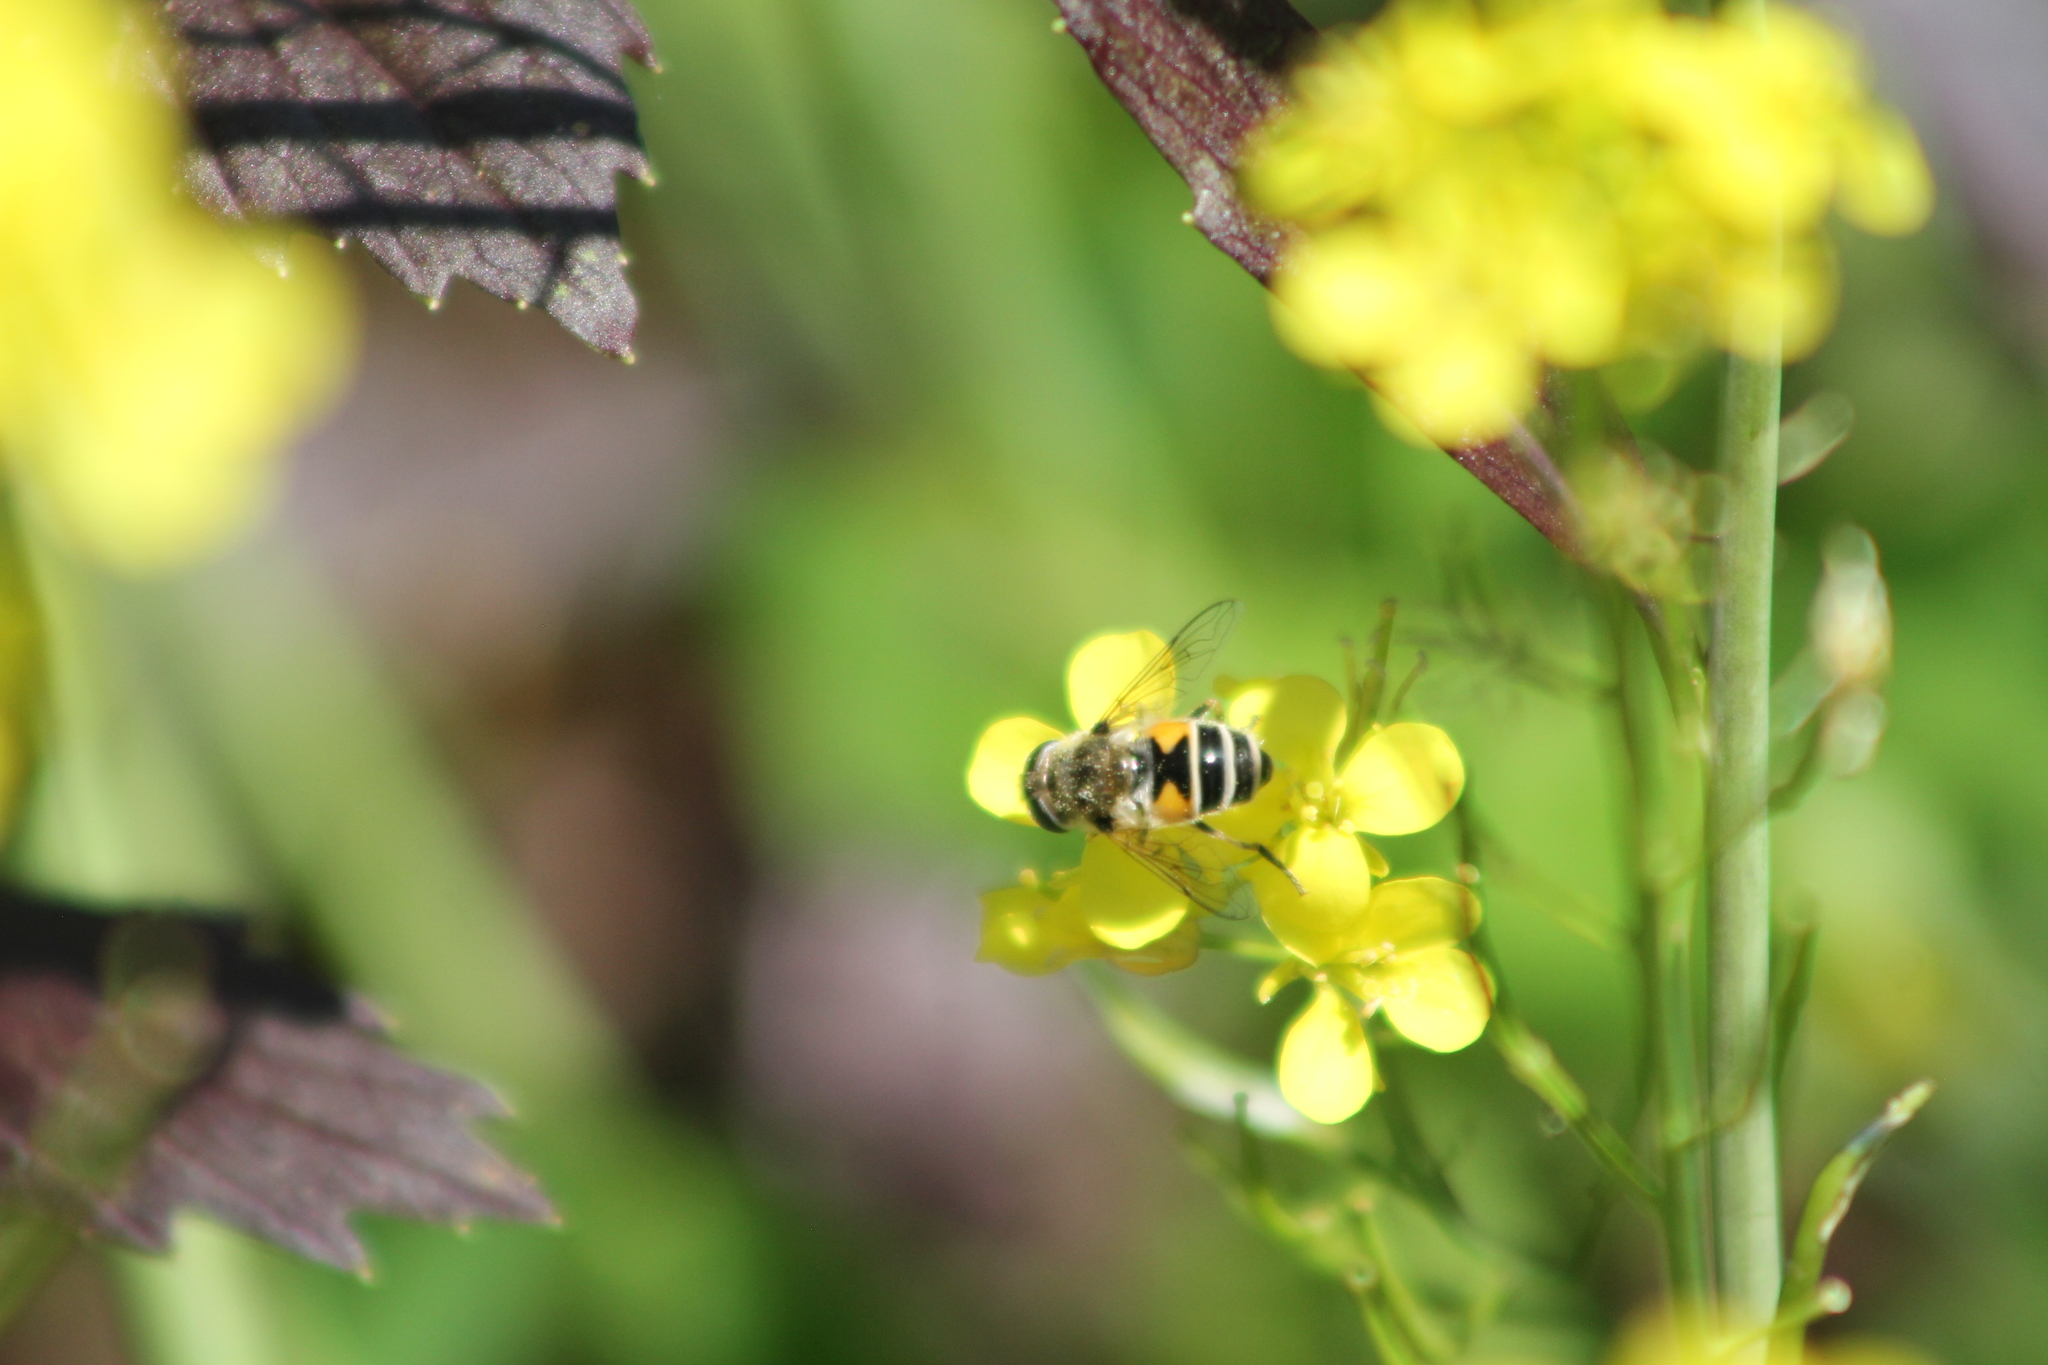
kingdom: Animalia
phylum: Arthropoda
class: Insecta
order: Diptera
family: Syrphidae
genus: Eristalis
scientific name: Eristalis arbustorum
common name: Hover fly
